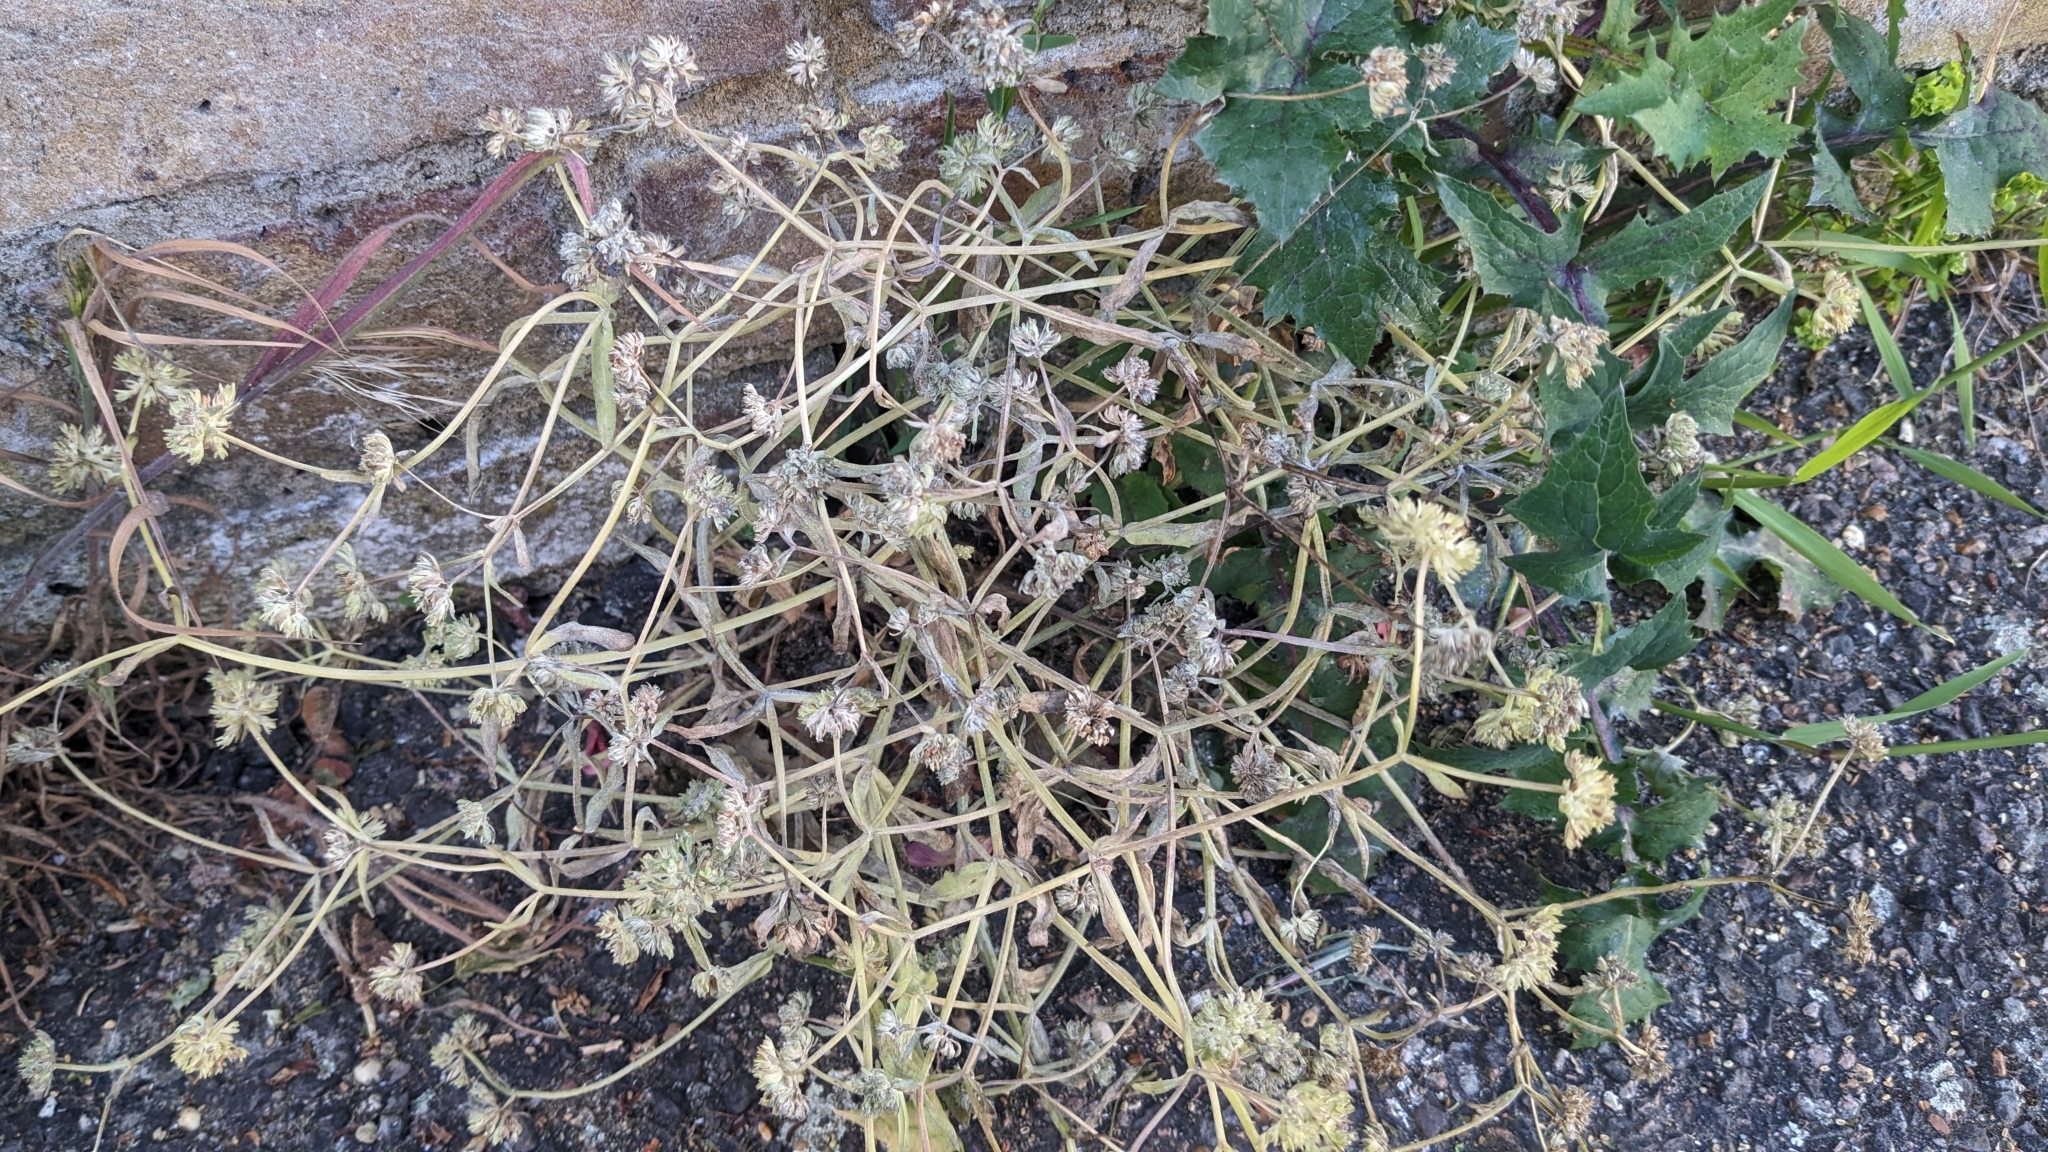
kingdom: Plantae
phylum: Tracheophyta
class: Magnoliopsida
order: Dipsacales
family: Caprifoliaceae
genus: Valerianella
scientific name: Valerianella carinata
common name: Keeled-fruited cornsalad
